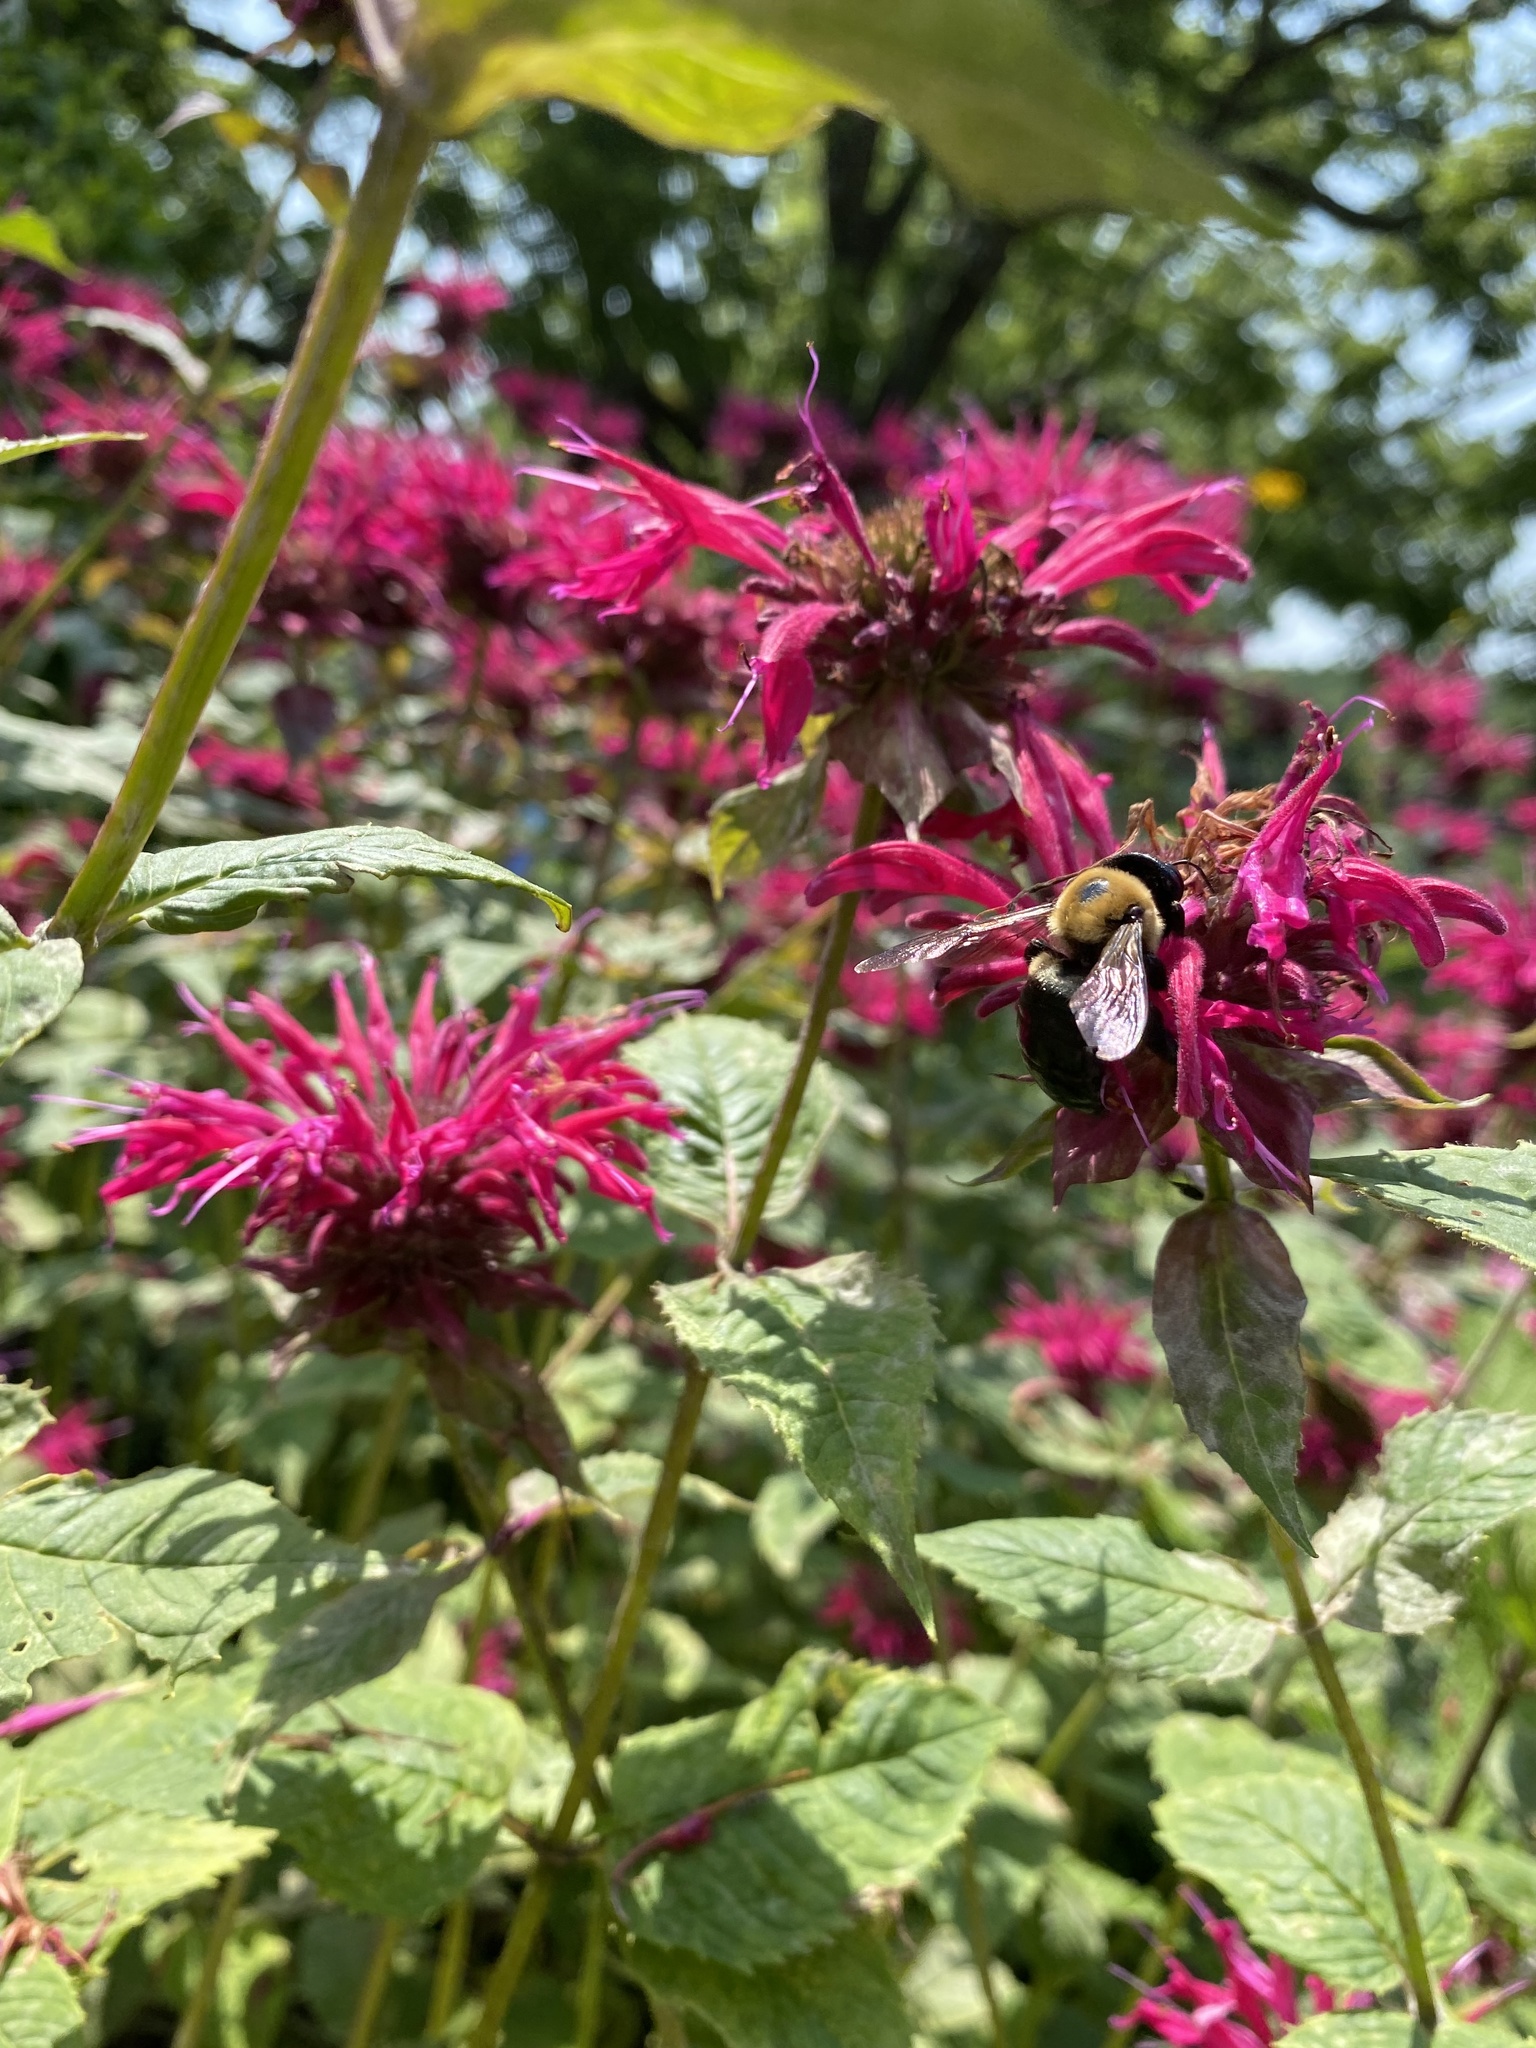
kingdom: Animalia
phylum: Arthropoda
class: Insecta
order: Hymenoptera
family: Apidae
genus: Xylocopa
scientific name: Xylocopa virginica
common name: Carpenter bee
